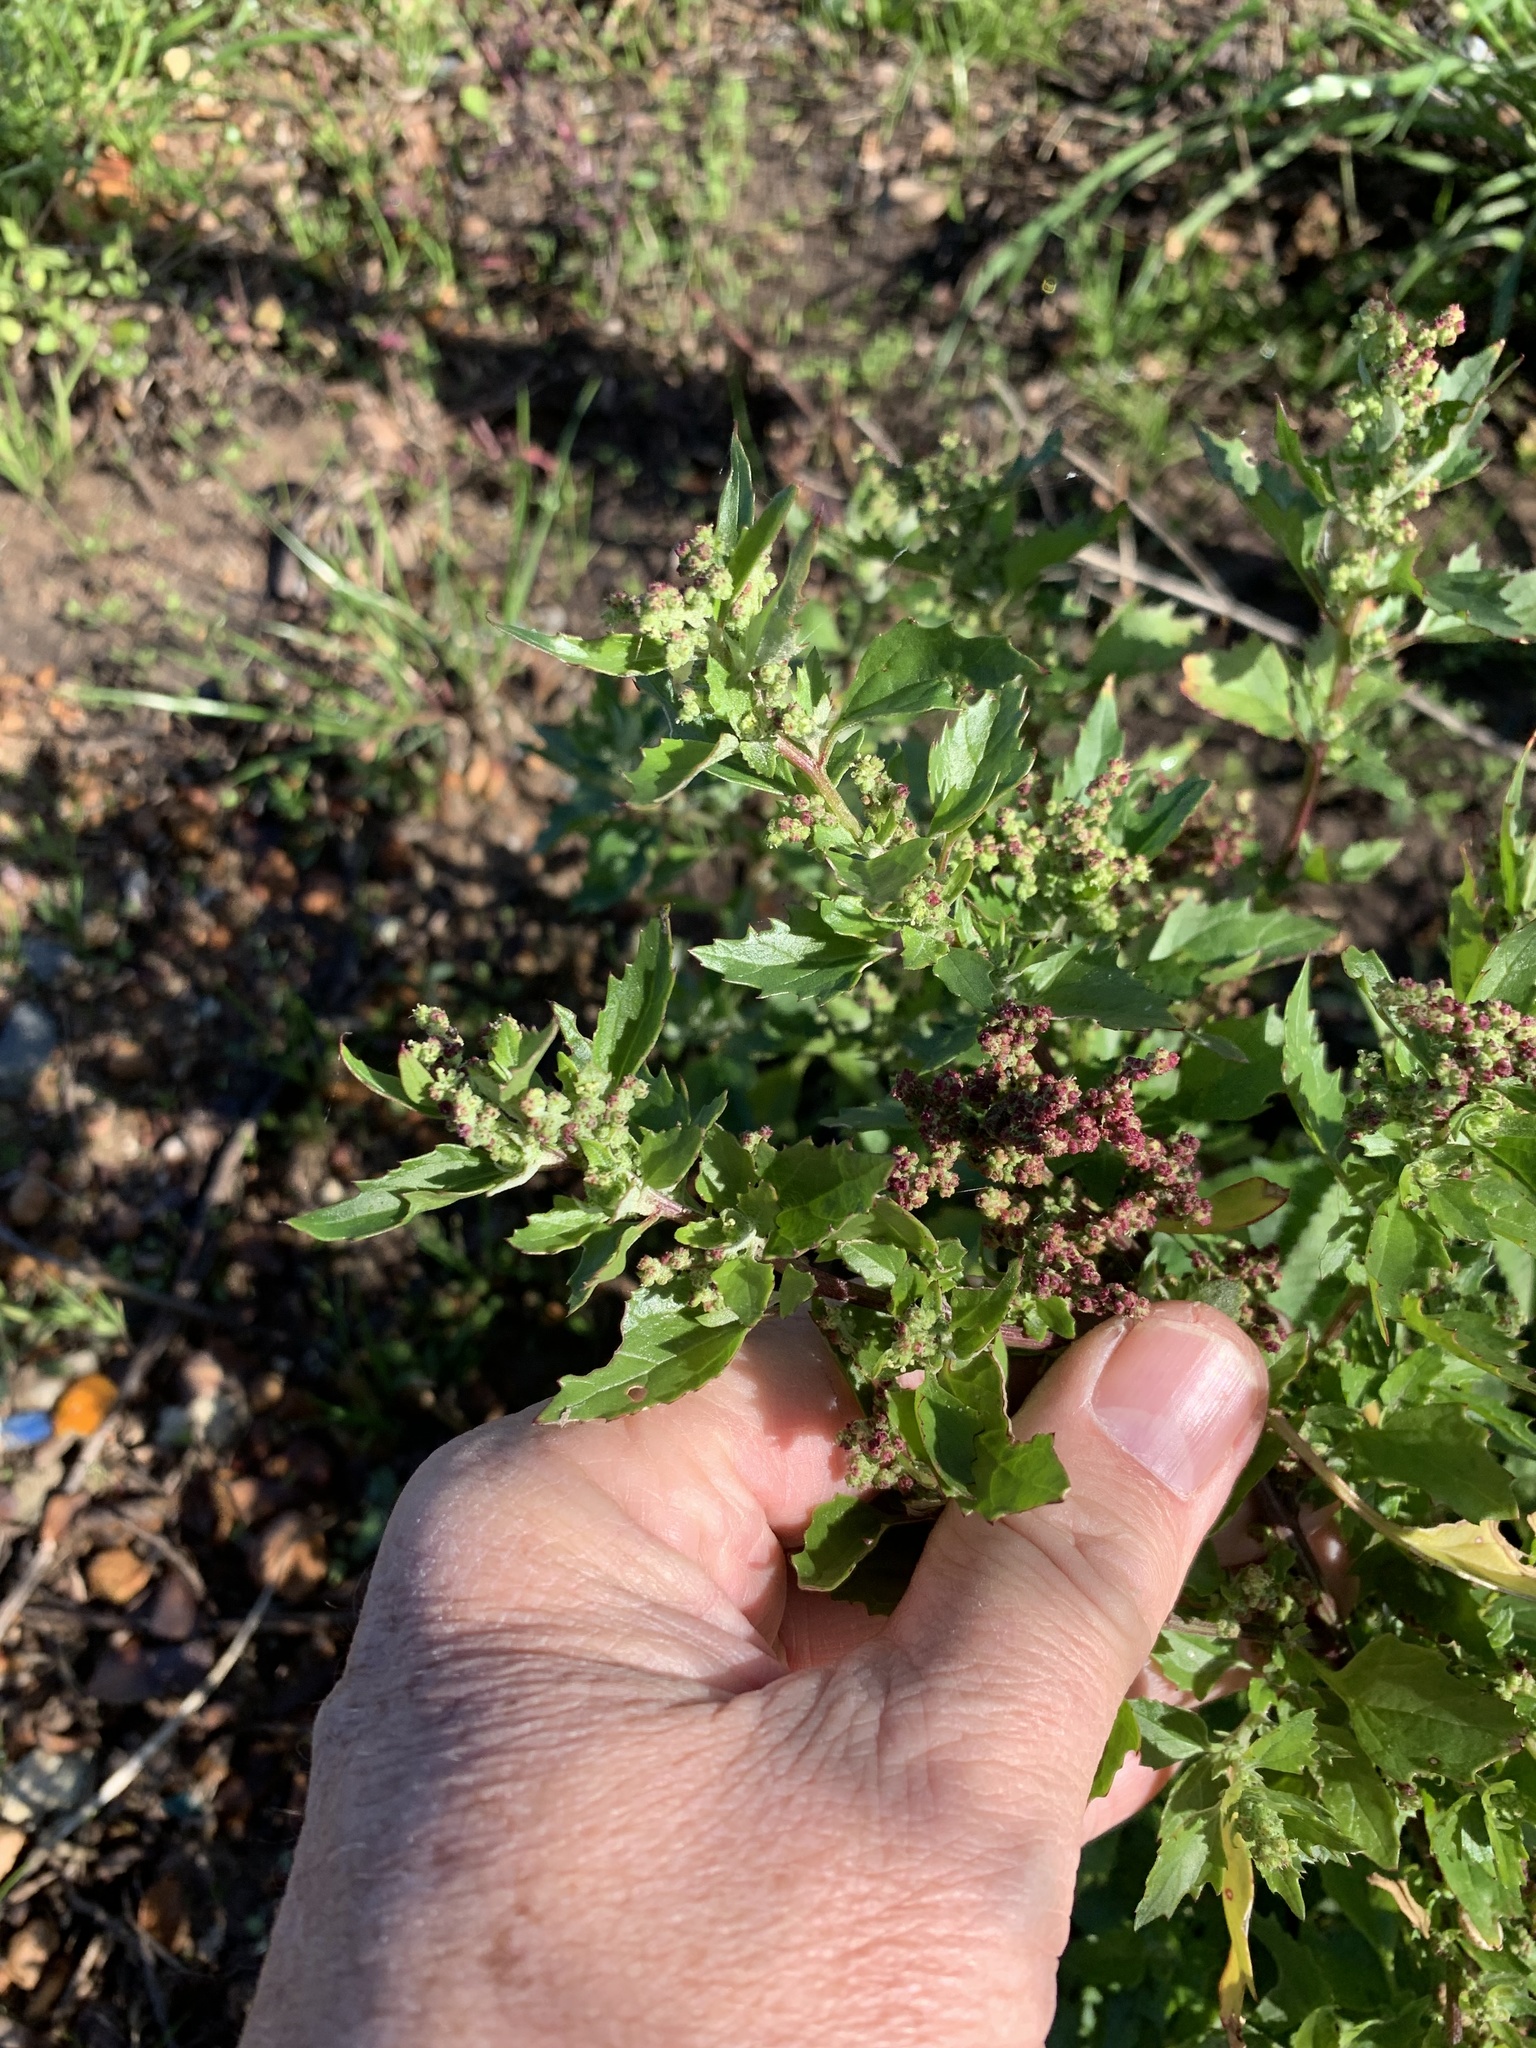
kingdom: Plantae
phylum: Tracheophyta
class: Magnoliopsida
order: Caryophyllales
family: Amaranthaceae
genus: Chenopodiastrum
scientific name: Chenopodiastrum murale
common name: Sowbane
